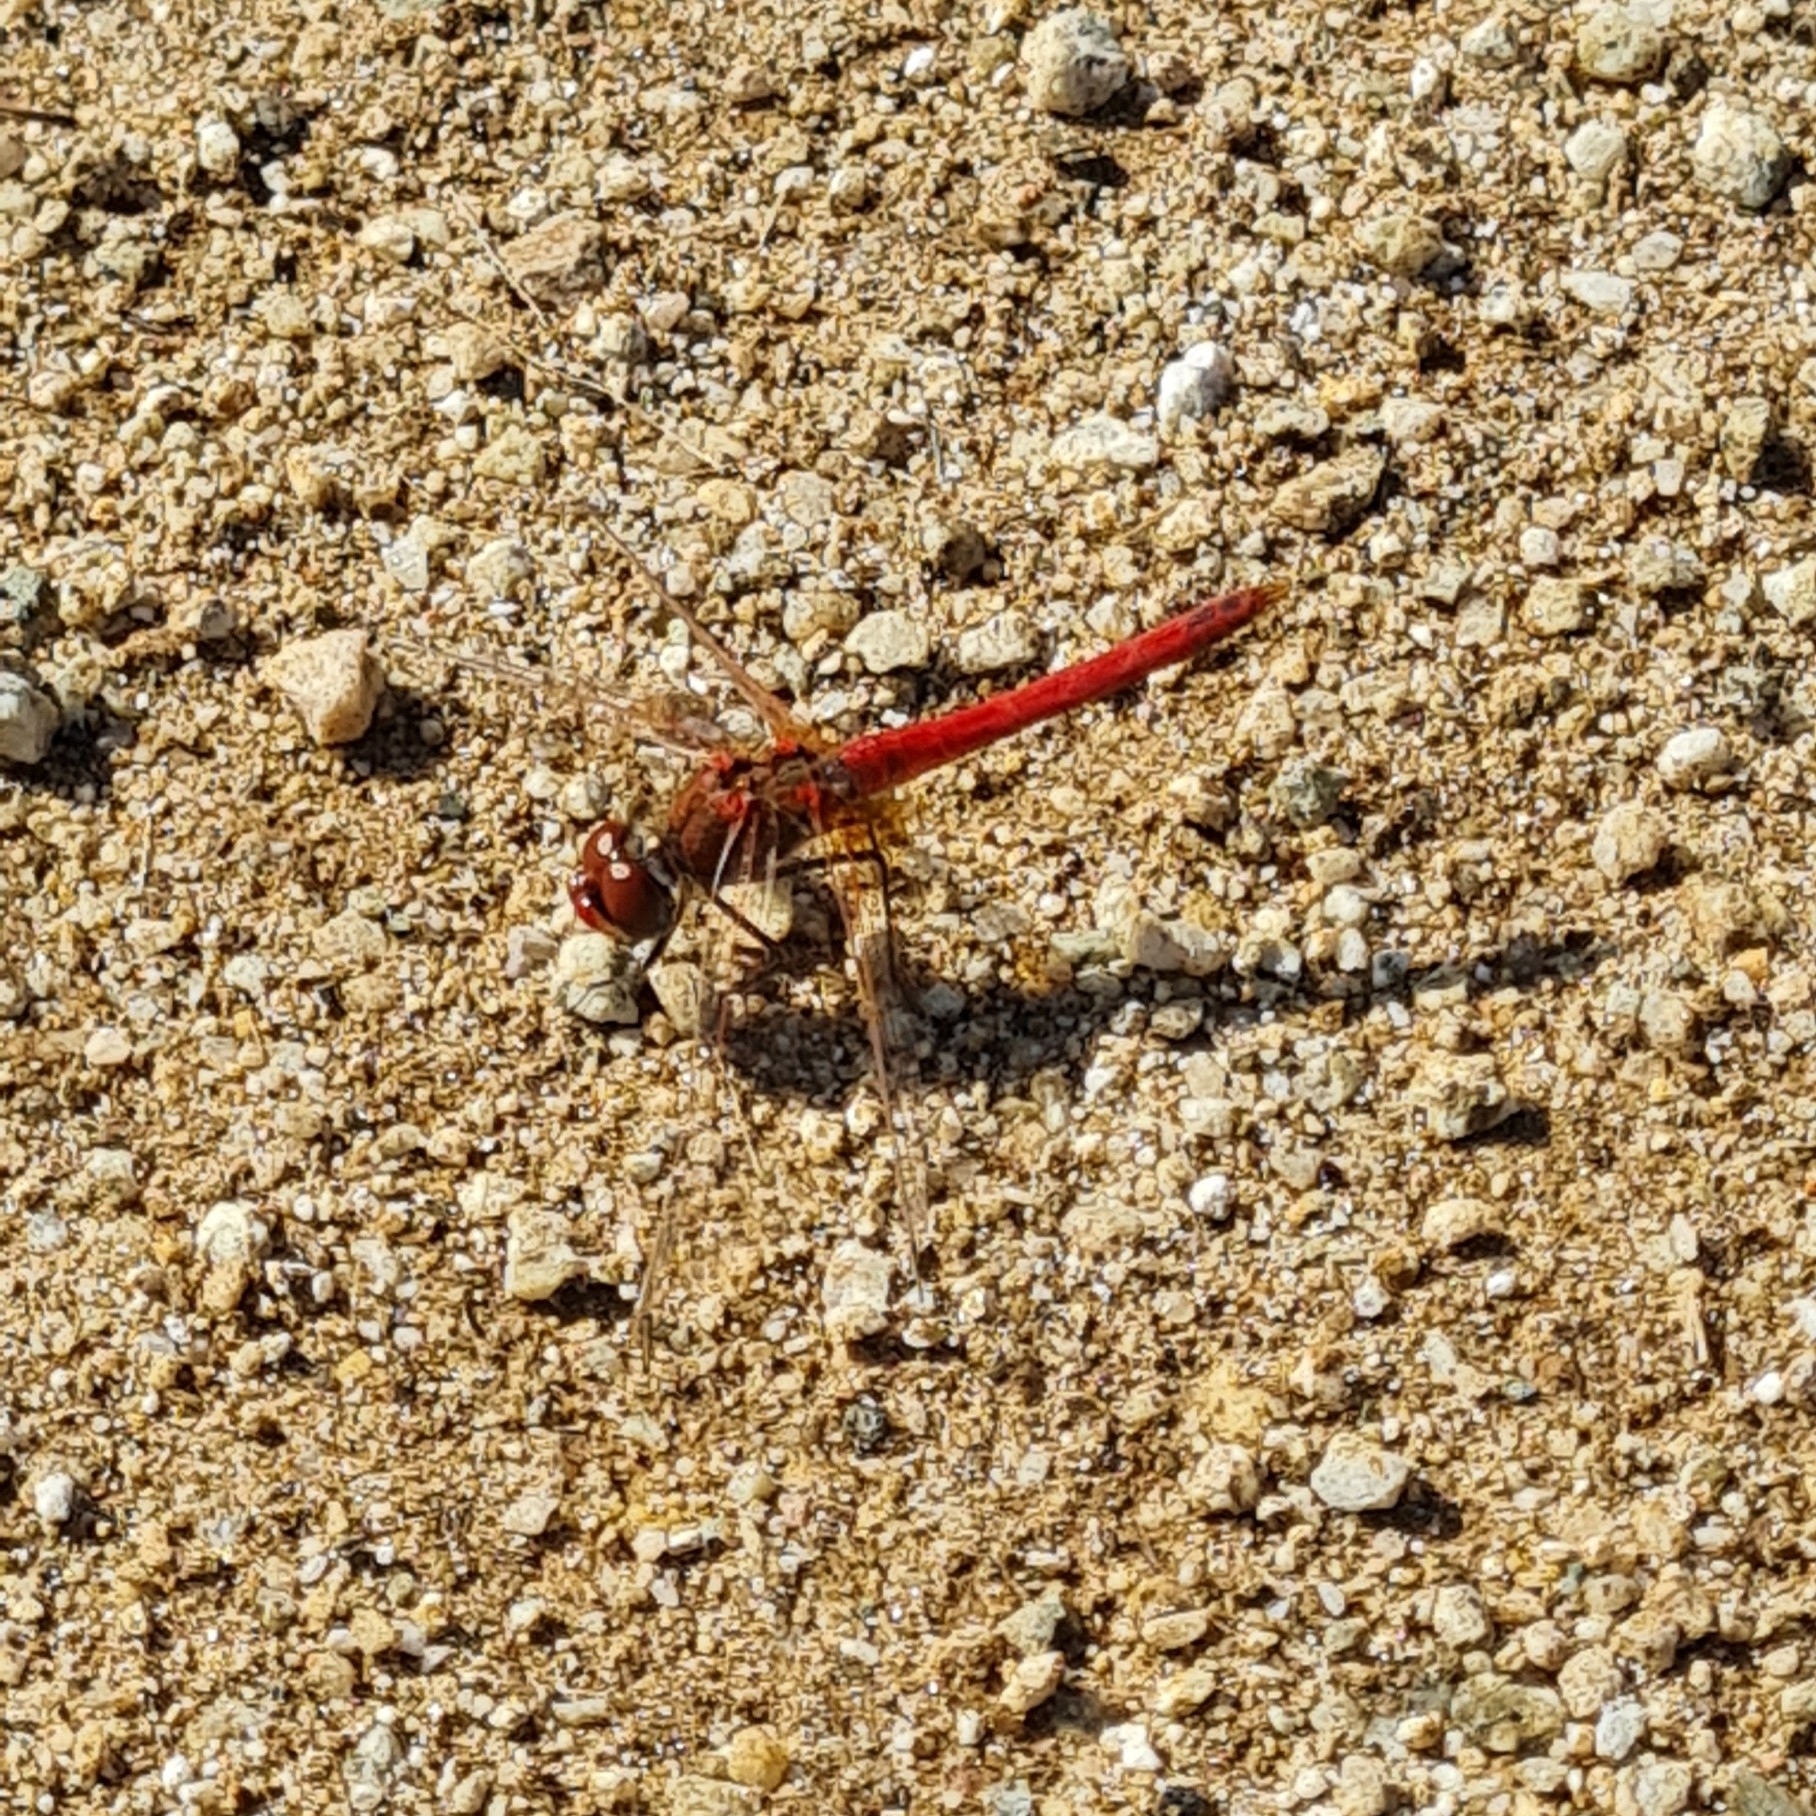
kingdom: Animalia
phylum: Arthropoda
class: Insecta
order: Odonata
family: Libellulidae
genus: Sympetrum
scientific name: Sympetrum fonscolombii
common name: Red-veined darter
